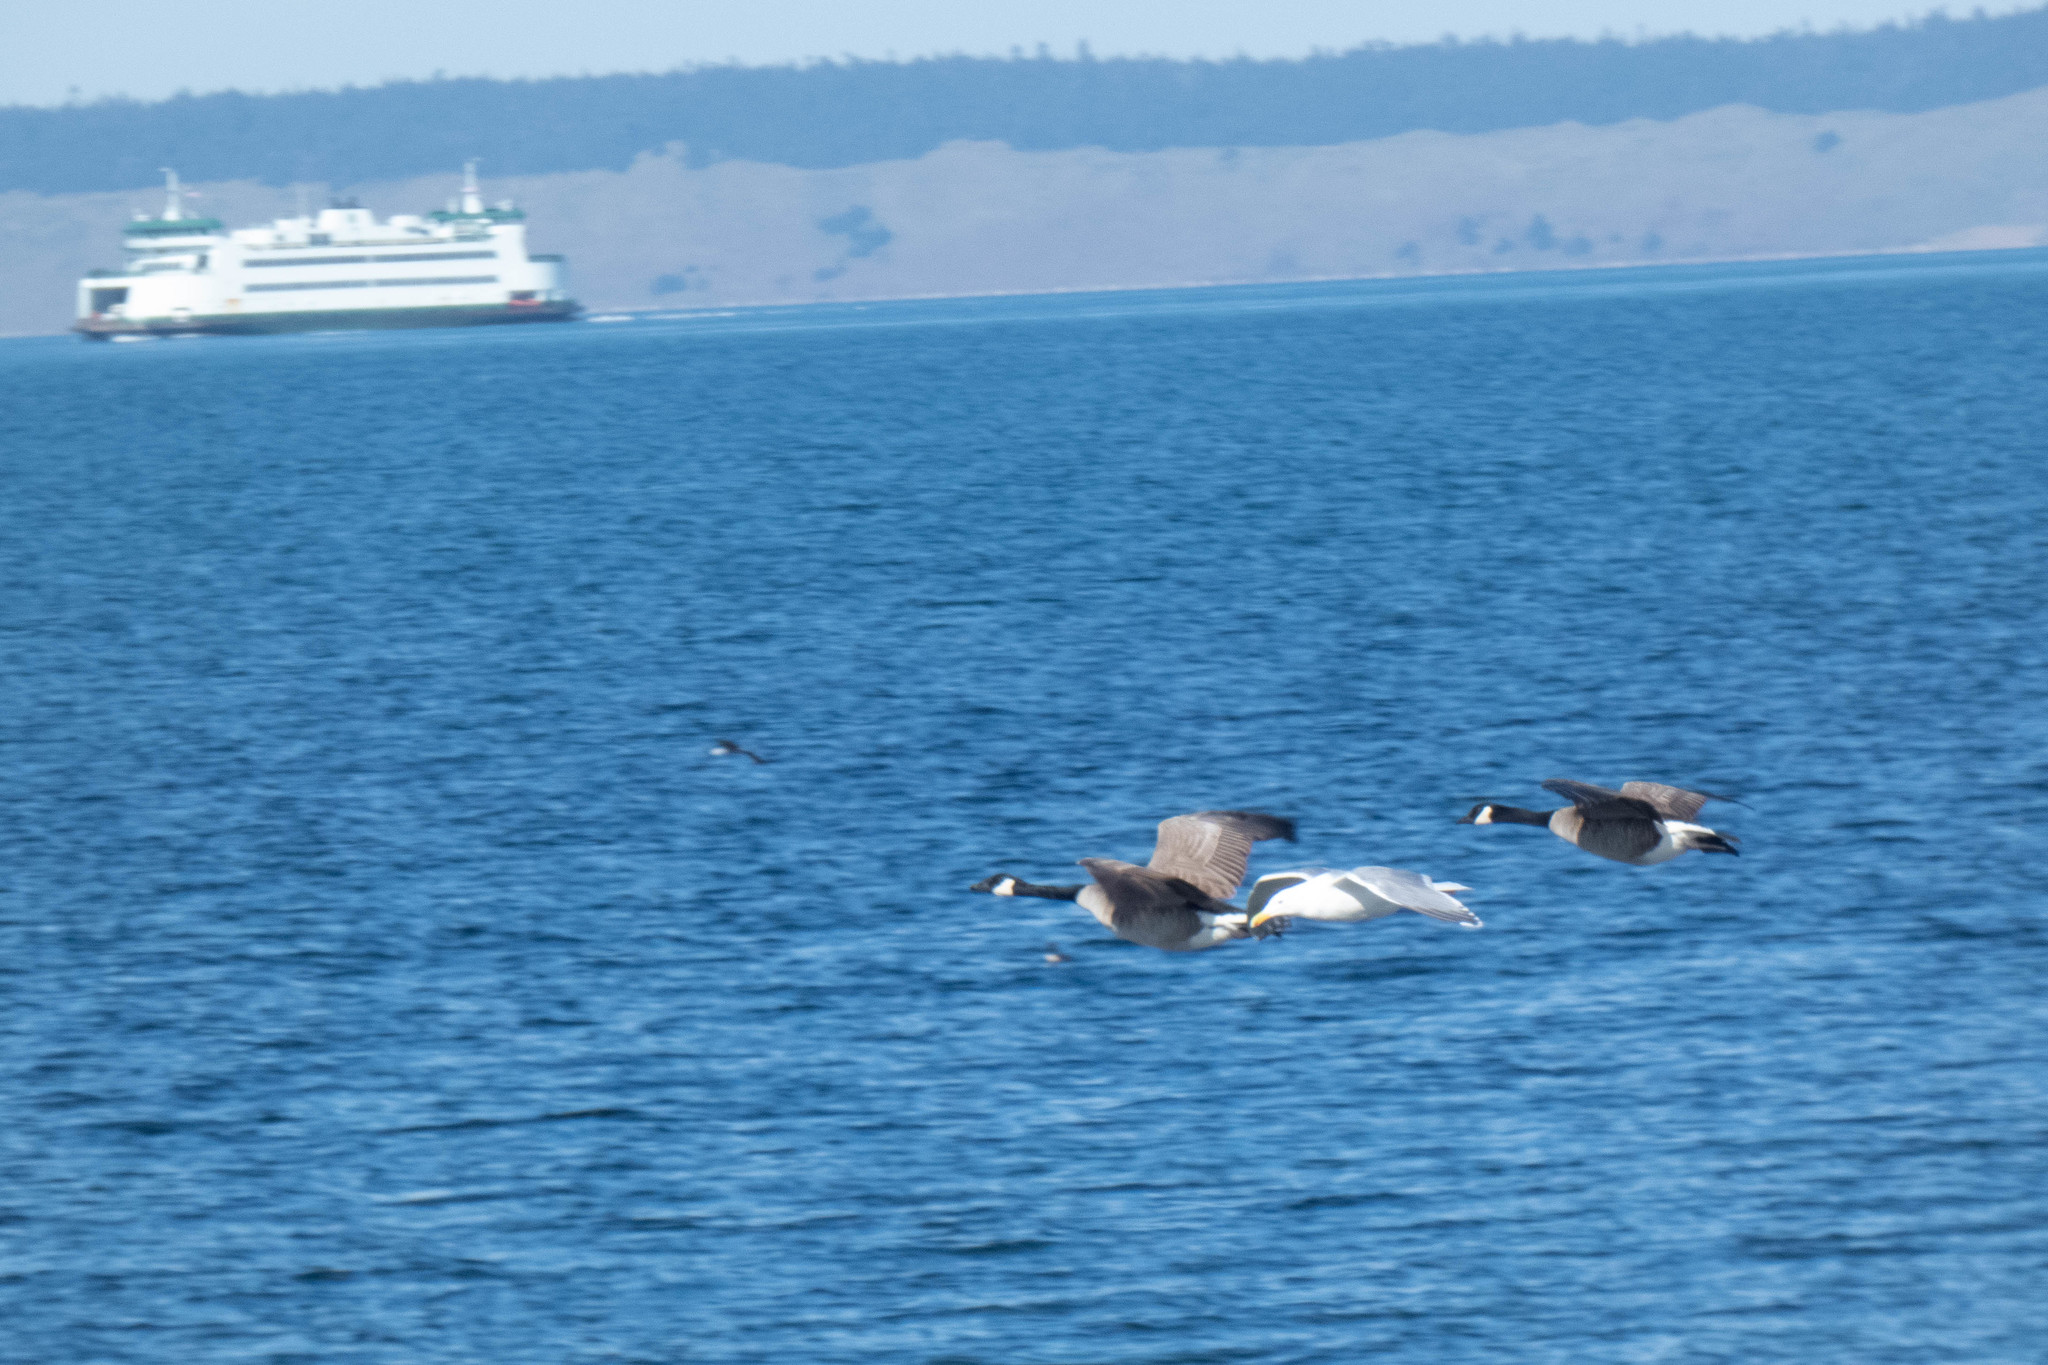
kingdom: Animalia
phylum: Chordata
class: Aves
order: Anseriformes
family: Anatidae
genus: Branta
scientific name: Branta canadensis
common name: Canada goose
